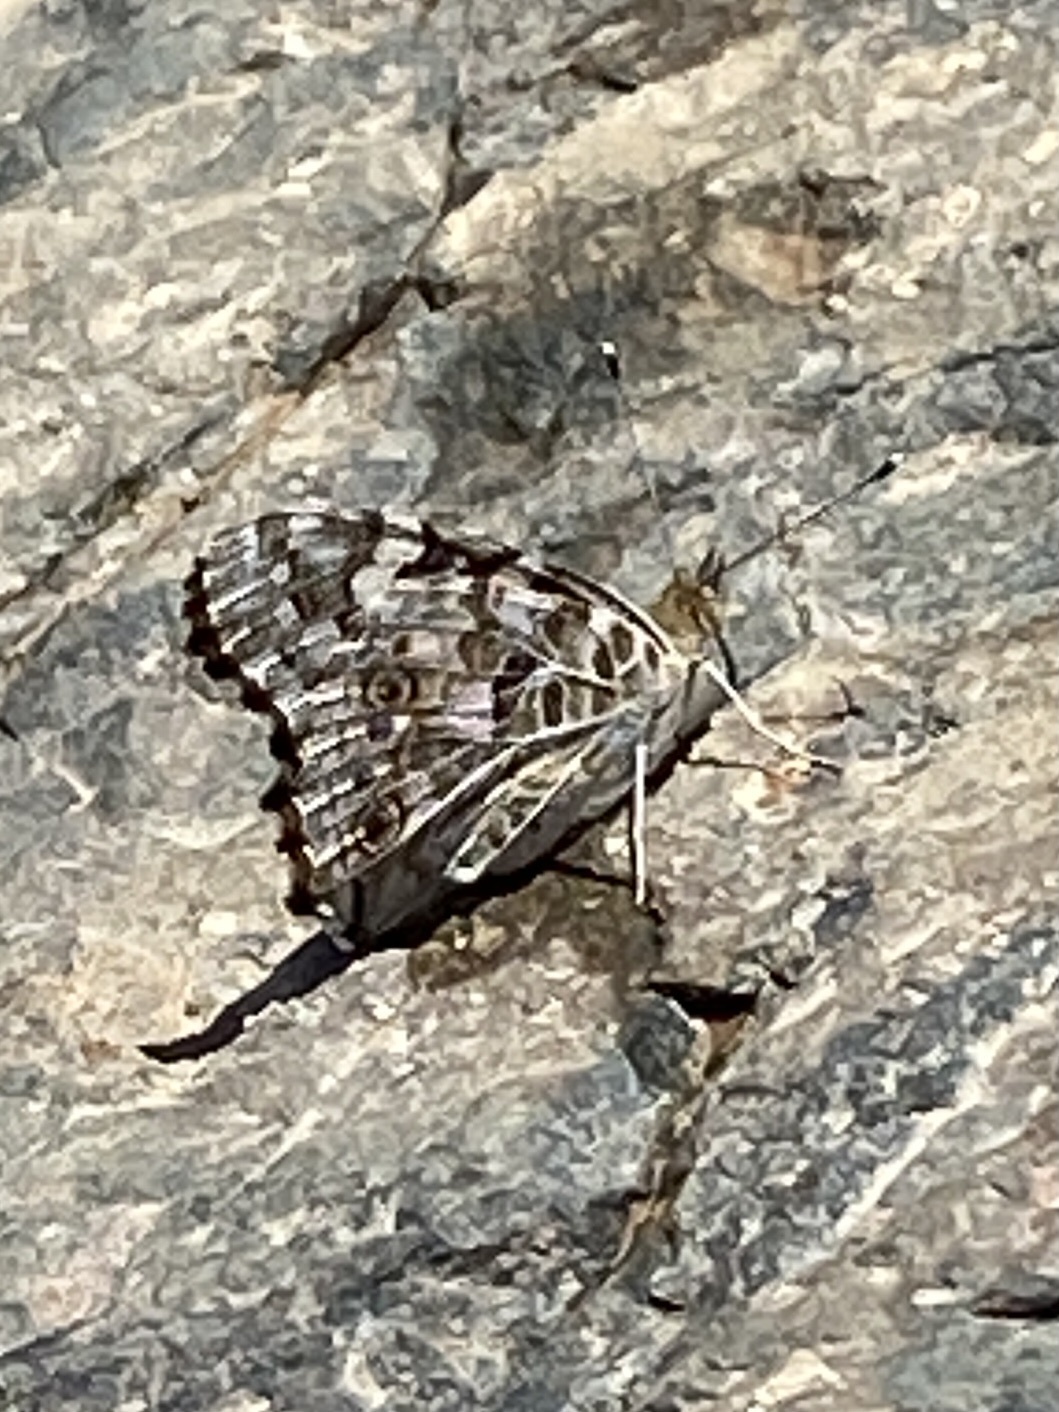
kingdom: Animalia
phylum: Arthropoda
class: Insecta
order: Lepidoptera
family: Nymphalidae
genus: Vanessa
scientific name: Vanessa cardui
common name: Painted lady
